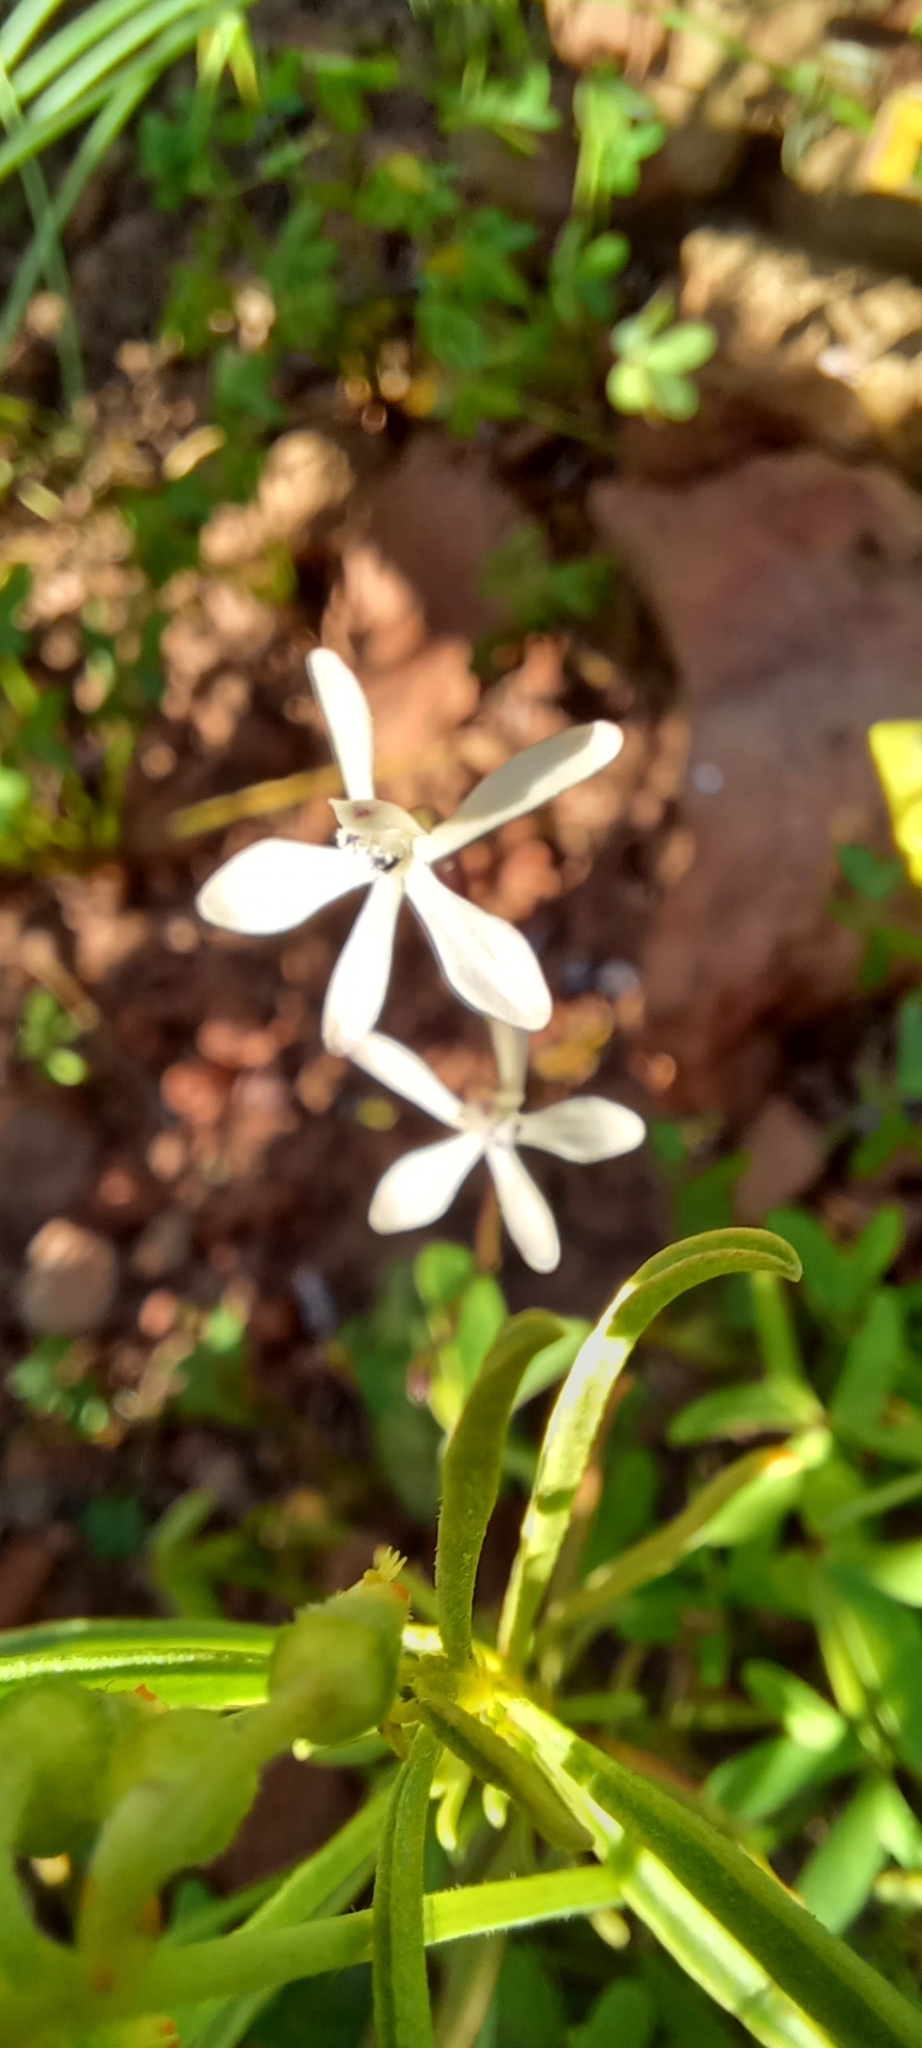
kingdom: Plantae
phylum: Tracheophyta
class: Liliopsida
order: Asparagales
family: Iridaceae
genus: Xenoscapa
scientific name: Xenoscapa fistulosa
